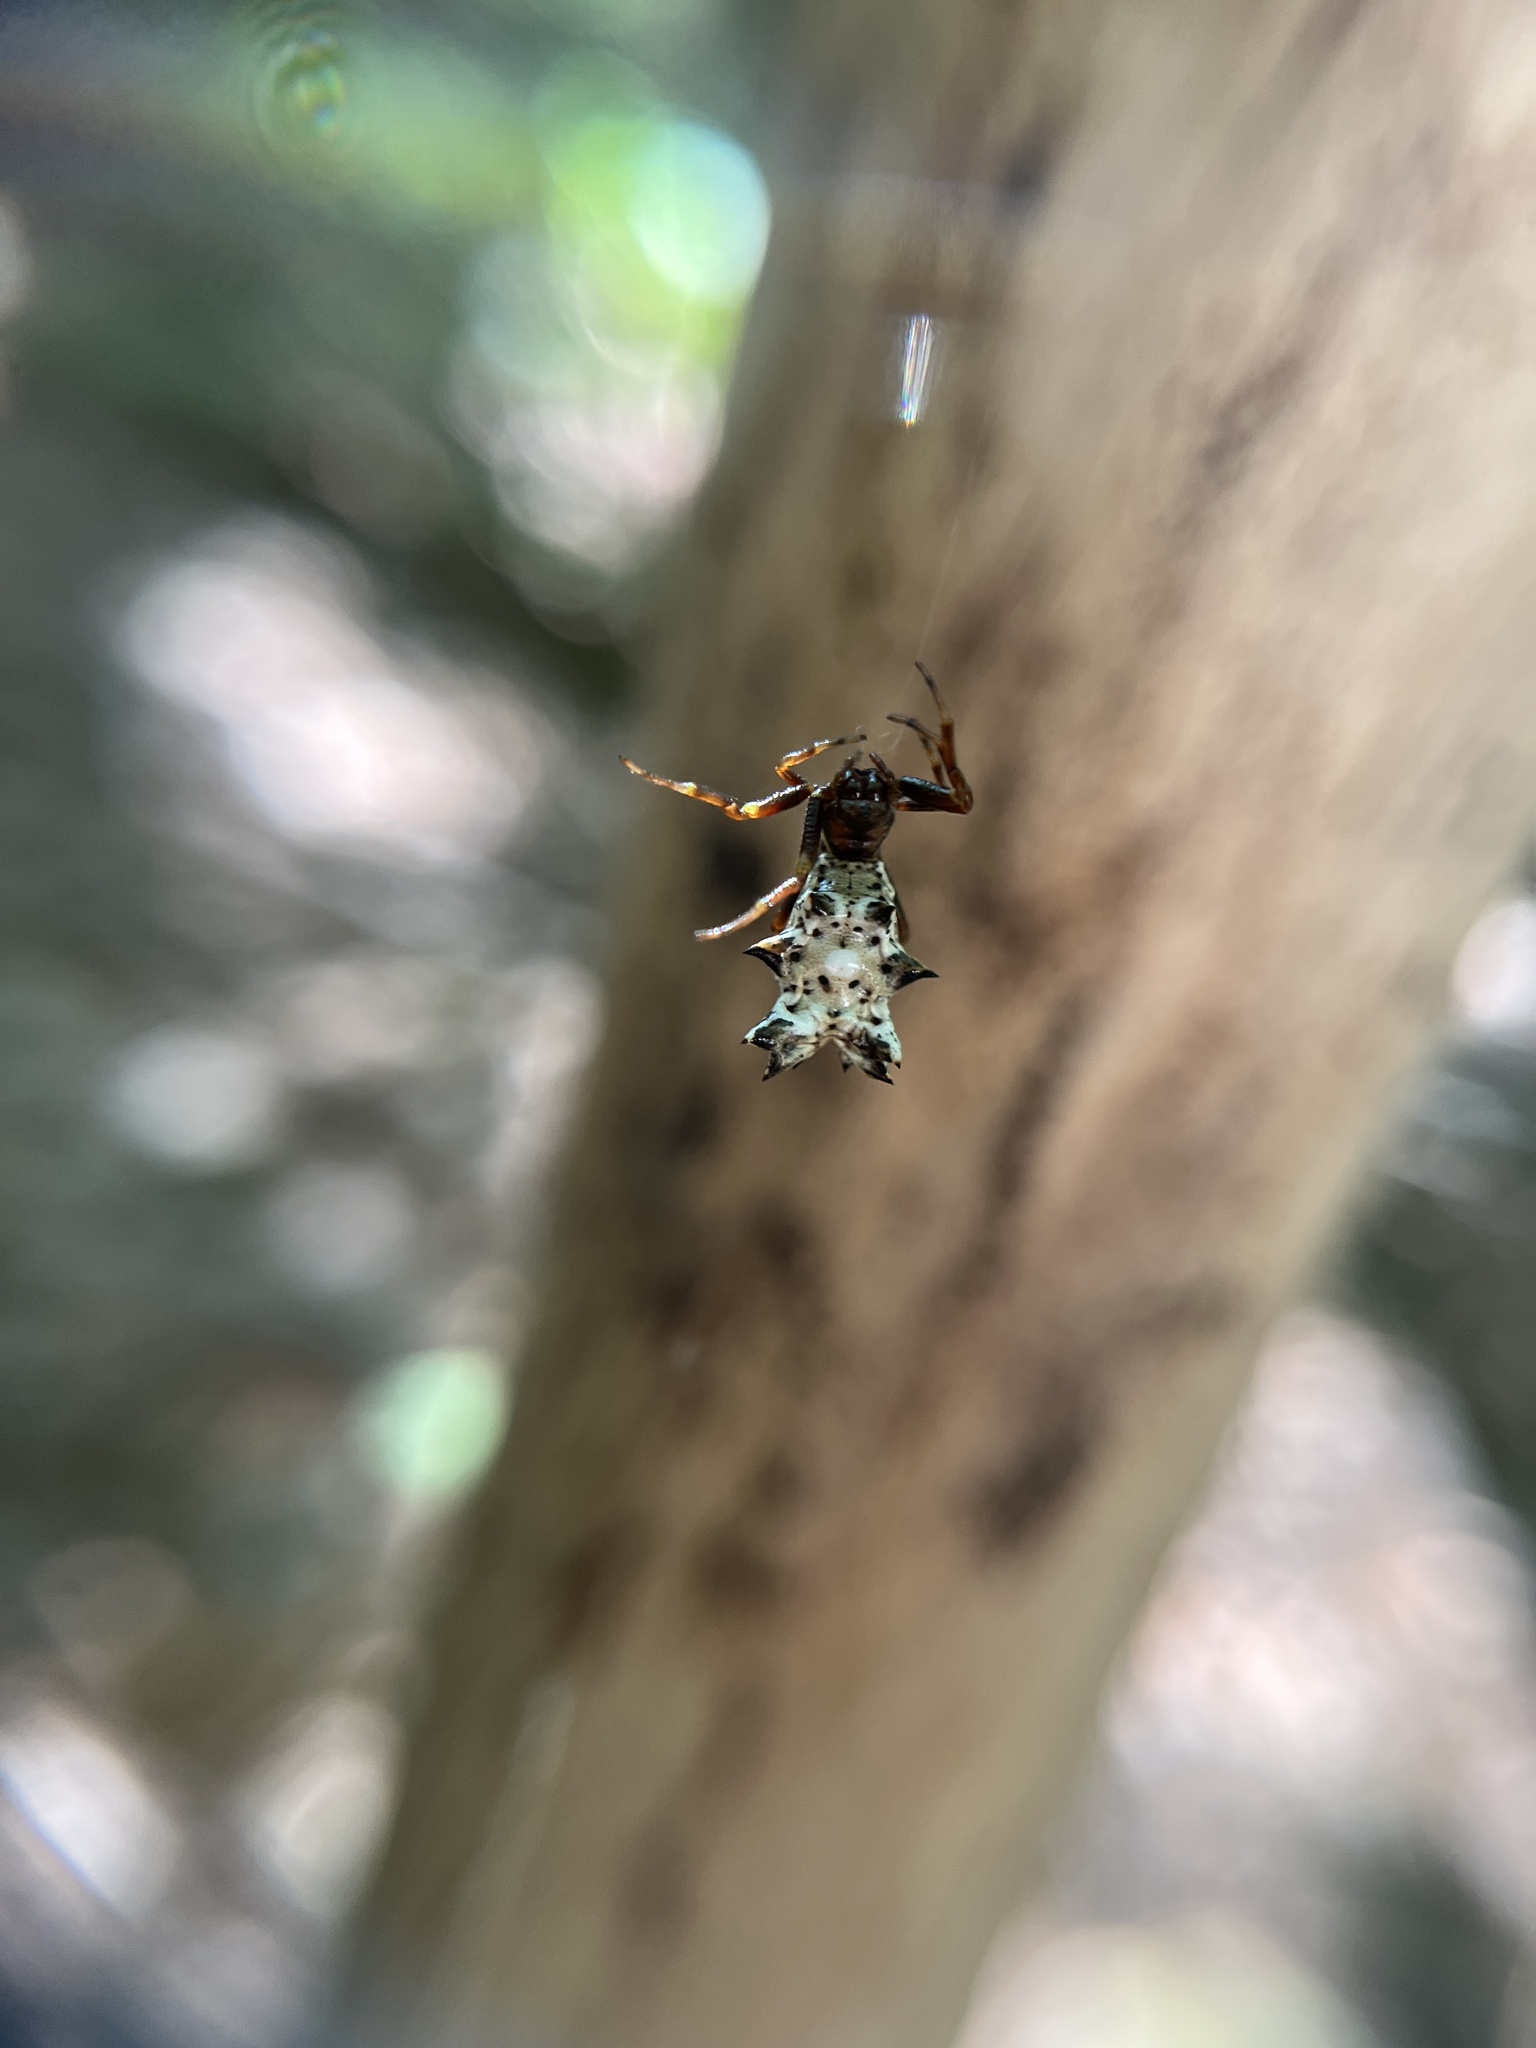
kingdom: Animalia
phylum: Arthropoda
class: Arachnida
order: Araneae
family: Araneidae
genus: Micrathena
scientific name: Micrathena gracilis
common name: Orb weavers
